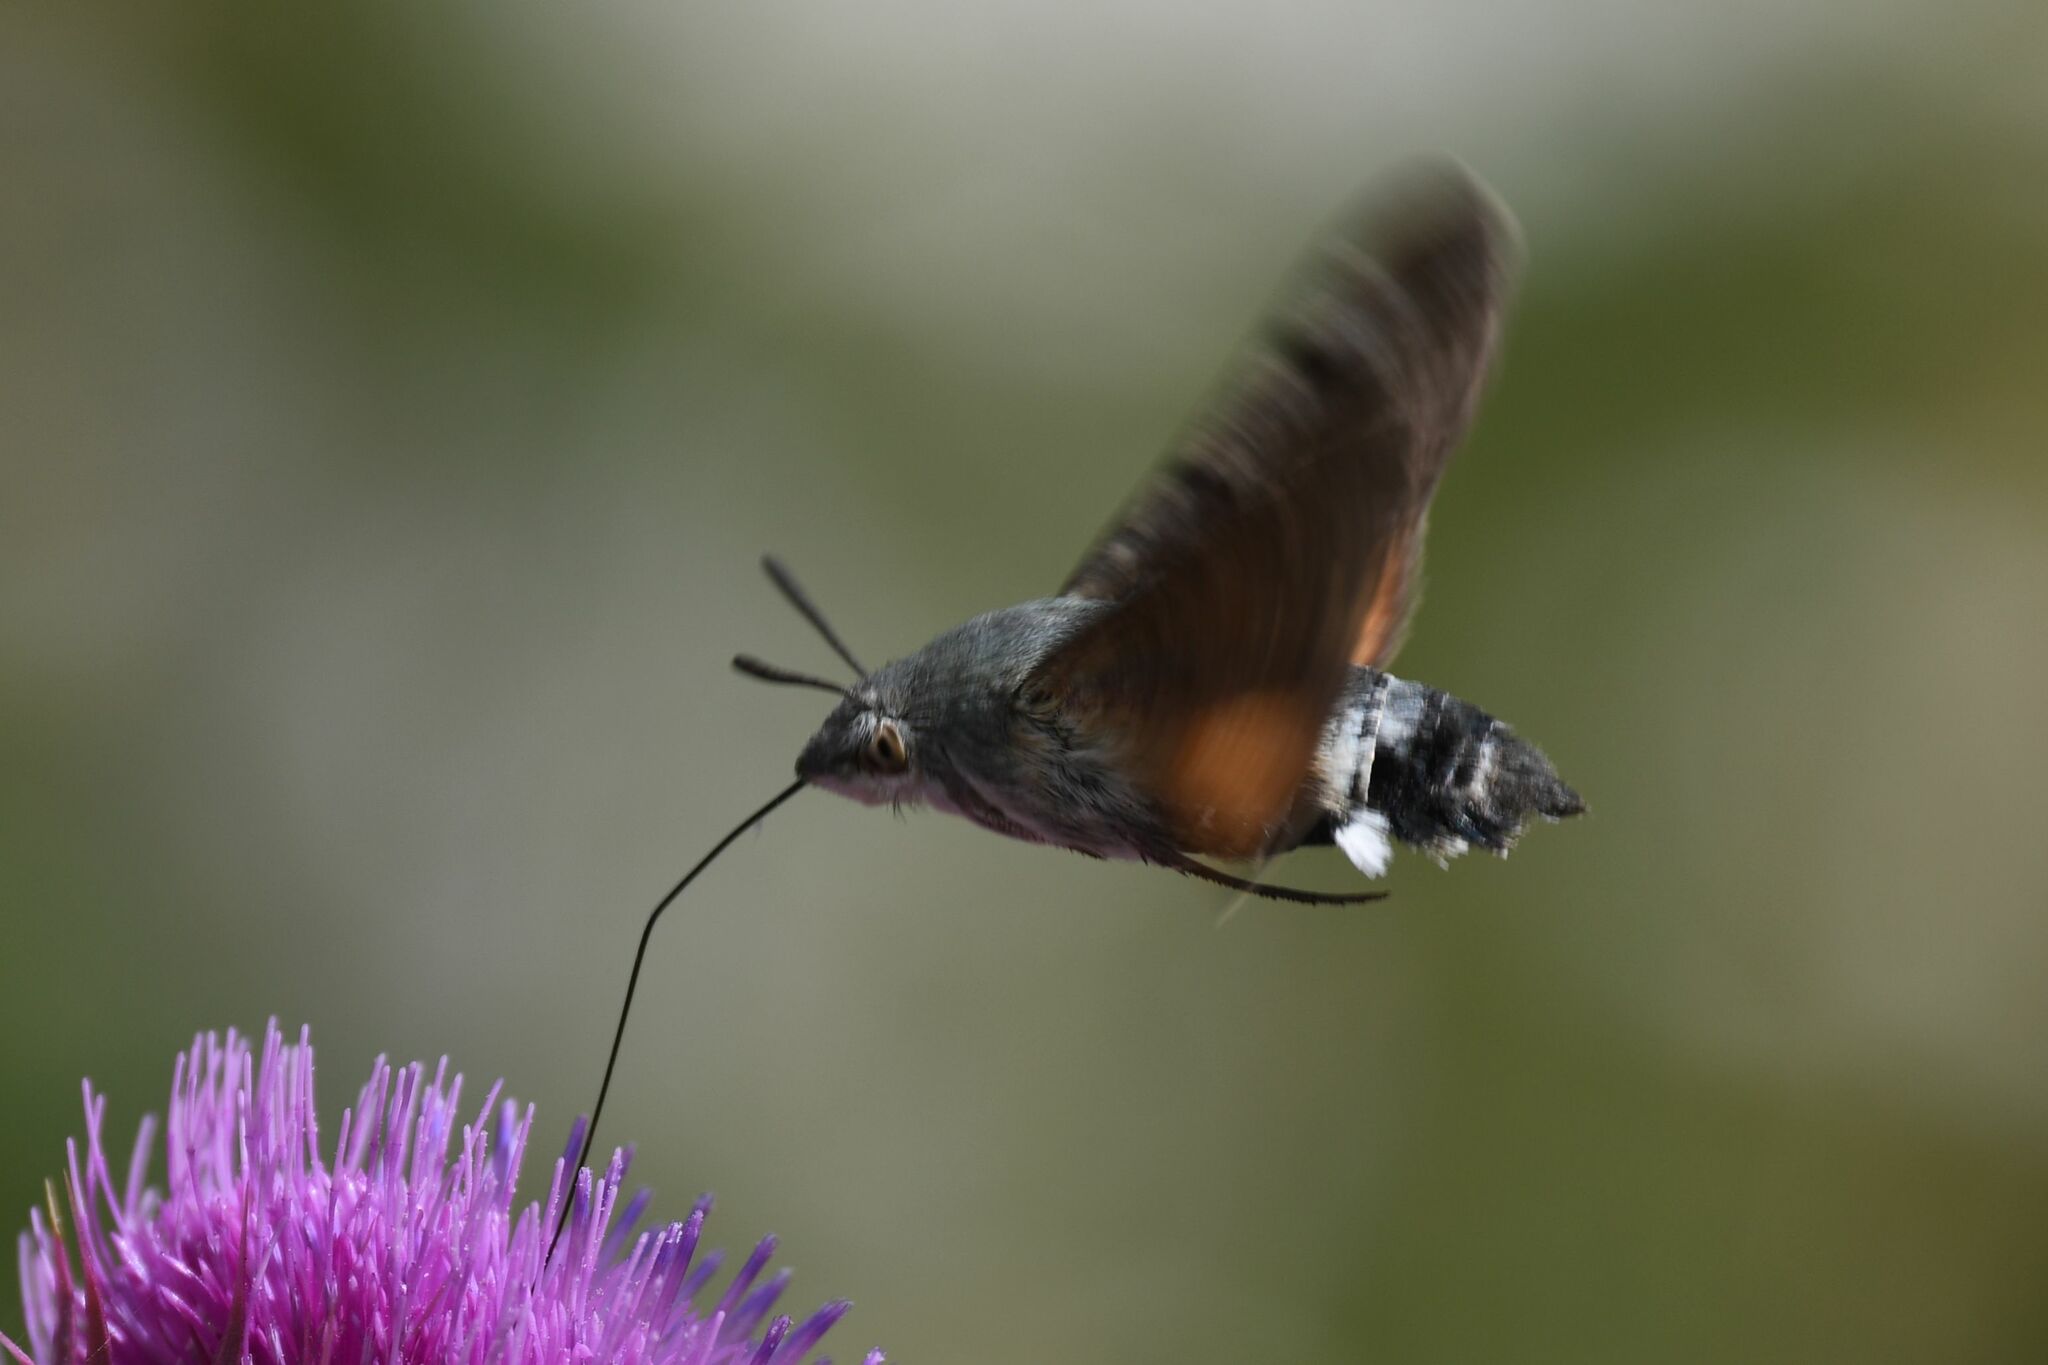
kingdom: Animalia
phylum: Arthropoda
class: Insecta
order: Lepidoptera
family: Sphingidae
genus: Macroglossum
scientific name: Macroglossum stellatarum
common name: Humming-bird hawk-moth
